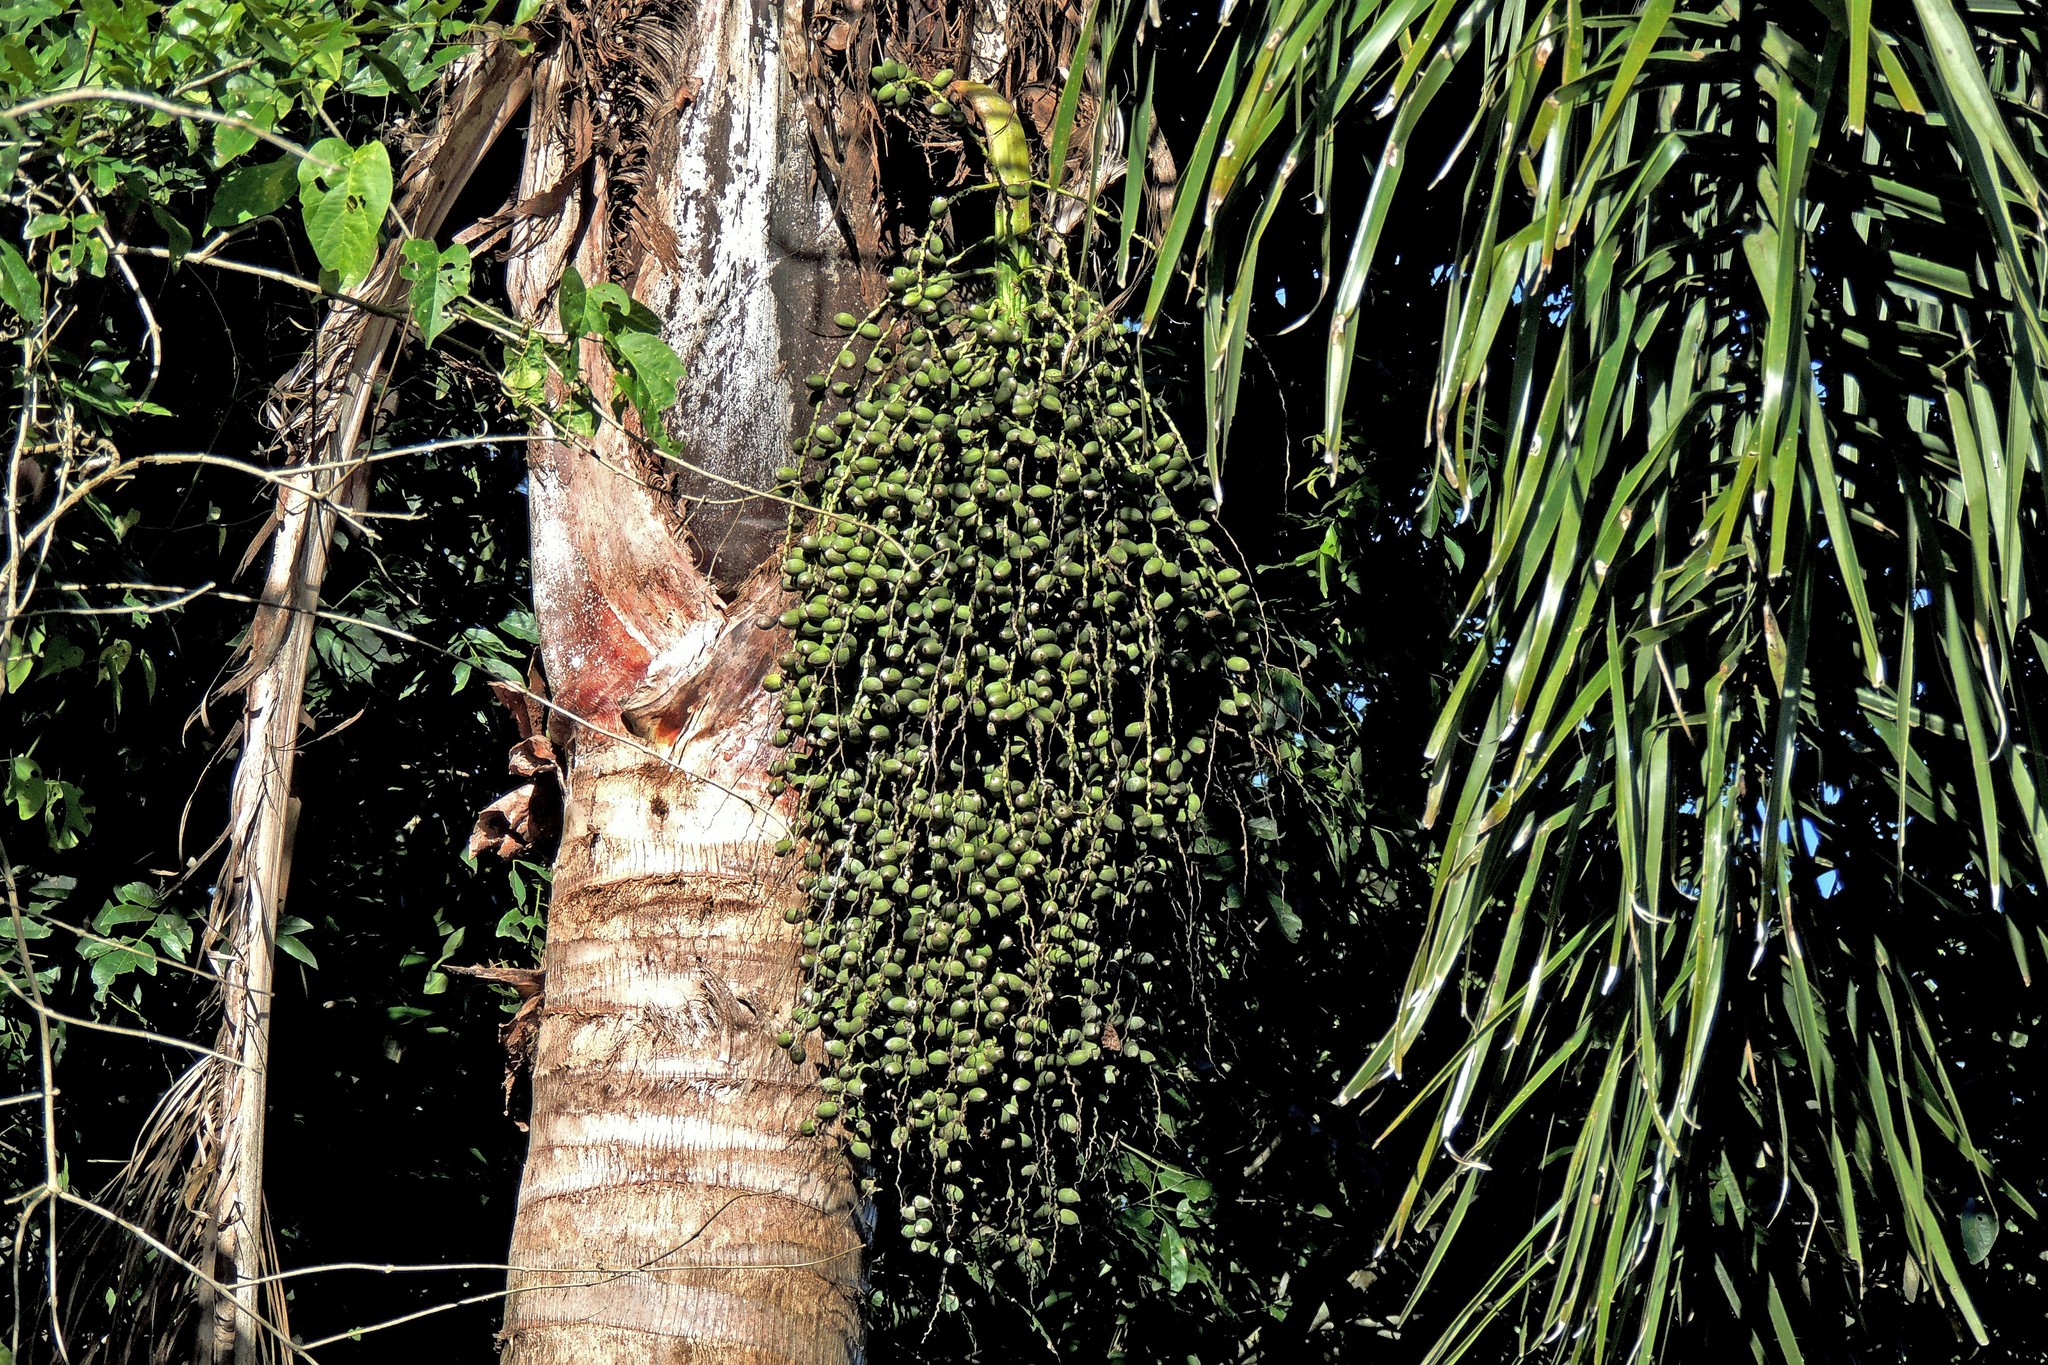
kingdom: Plantae
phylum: Tracheophyta
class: Liliopsida
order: Arecales
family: Arecaceae
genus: Syagrus
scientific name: Syagrus romanzoffiana
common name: Queen palm
